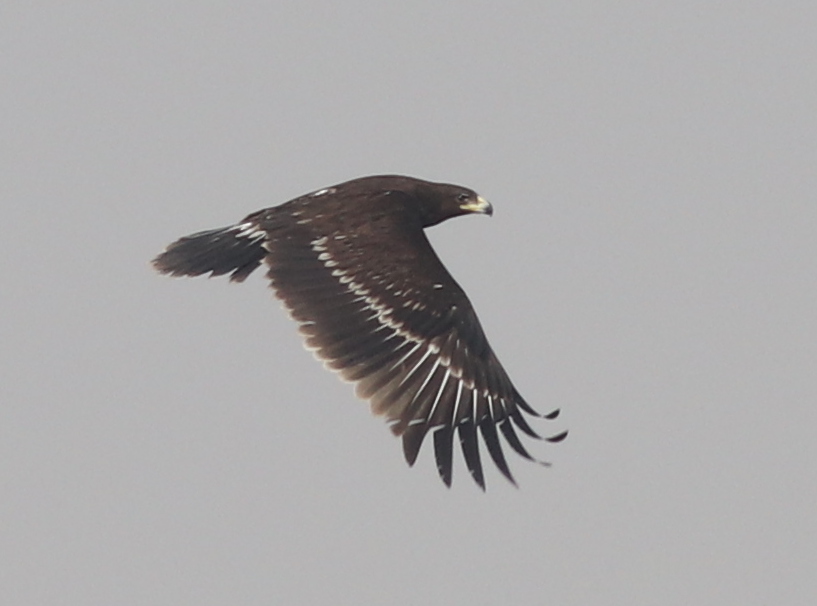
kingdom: Animalia
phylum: Chordata
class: Aves
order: Accipitriformes
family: Accipitridae
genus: Aquila
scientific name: Aquila clanga
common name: Greater spotted eagle
